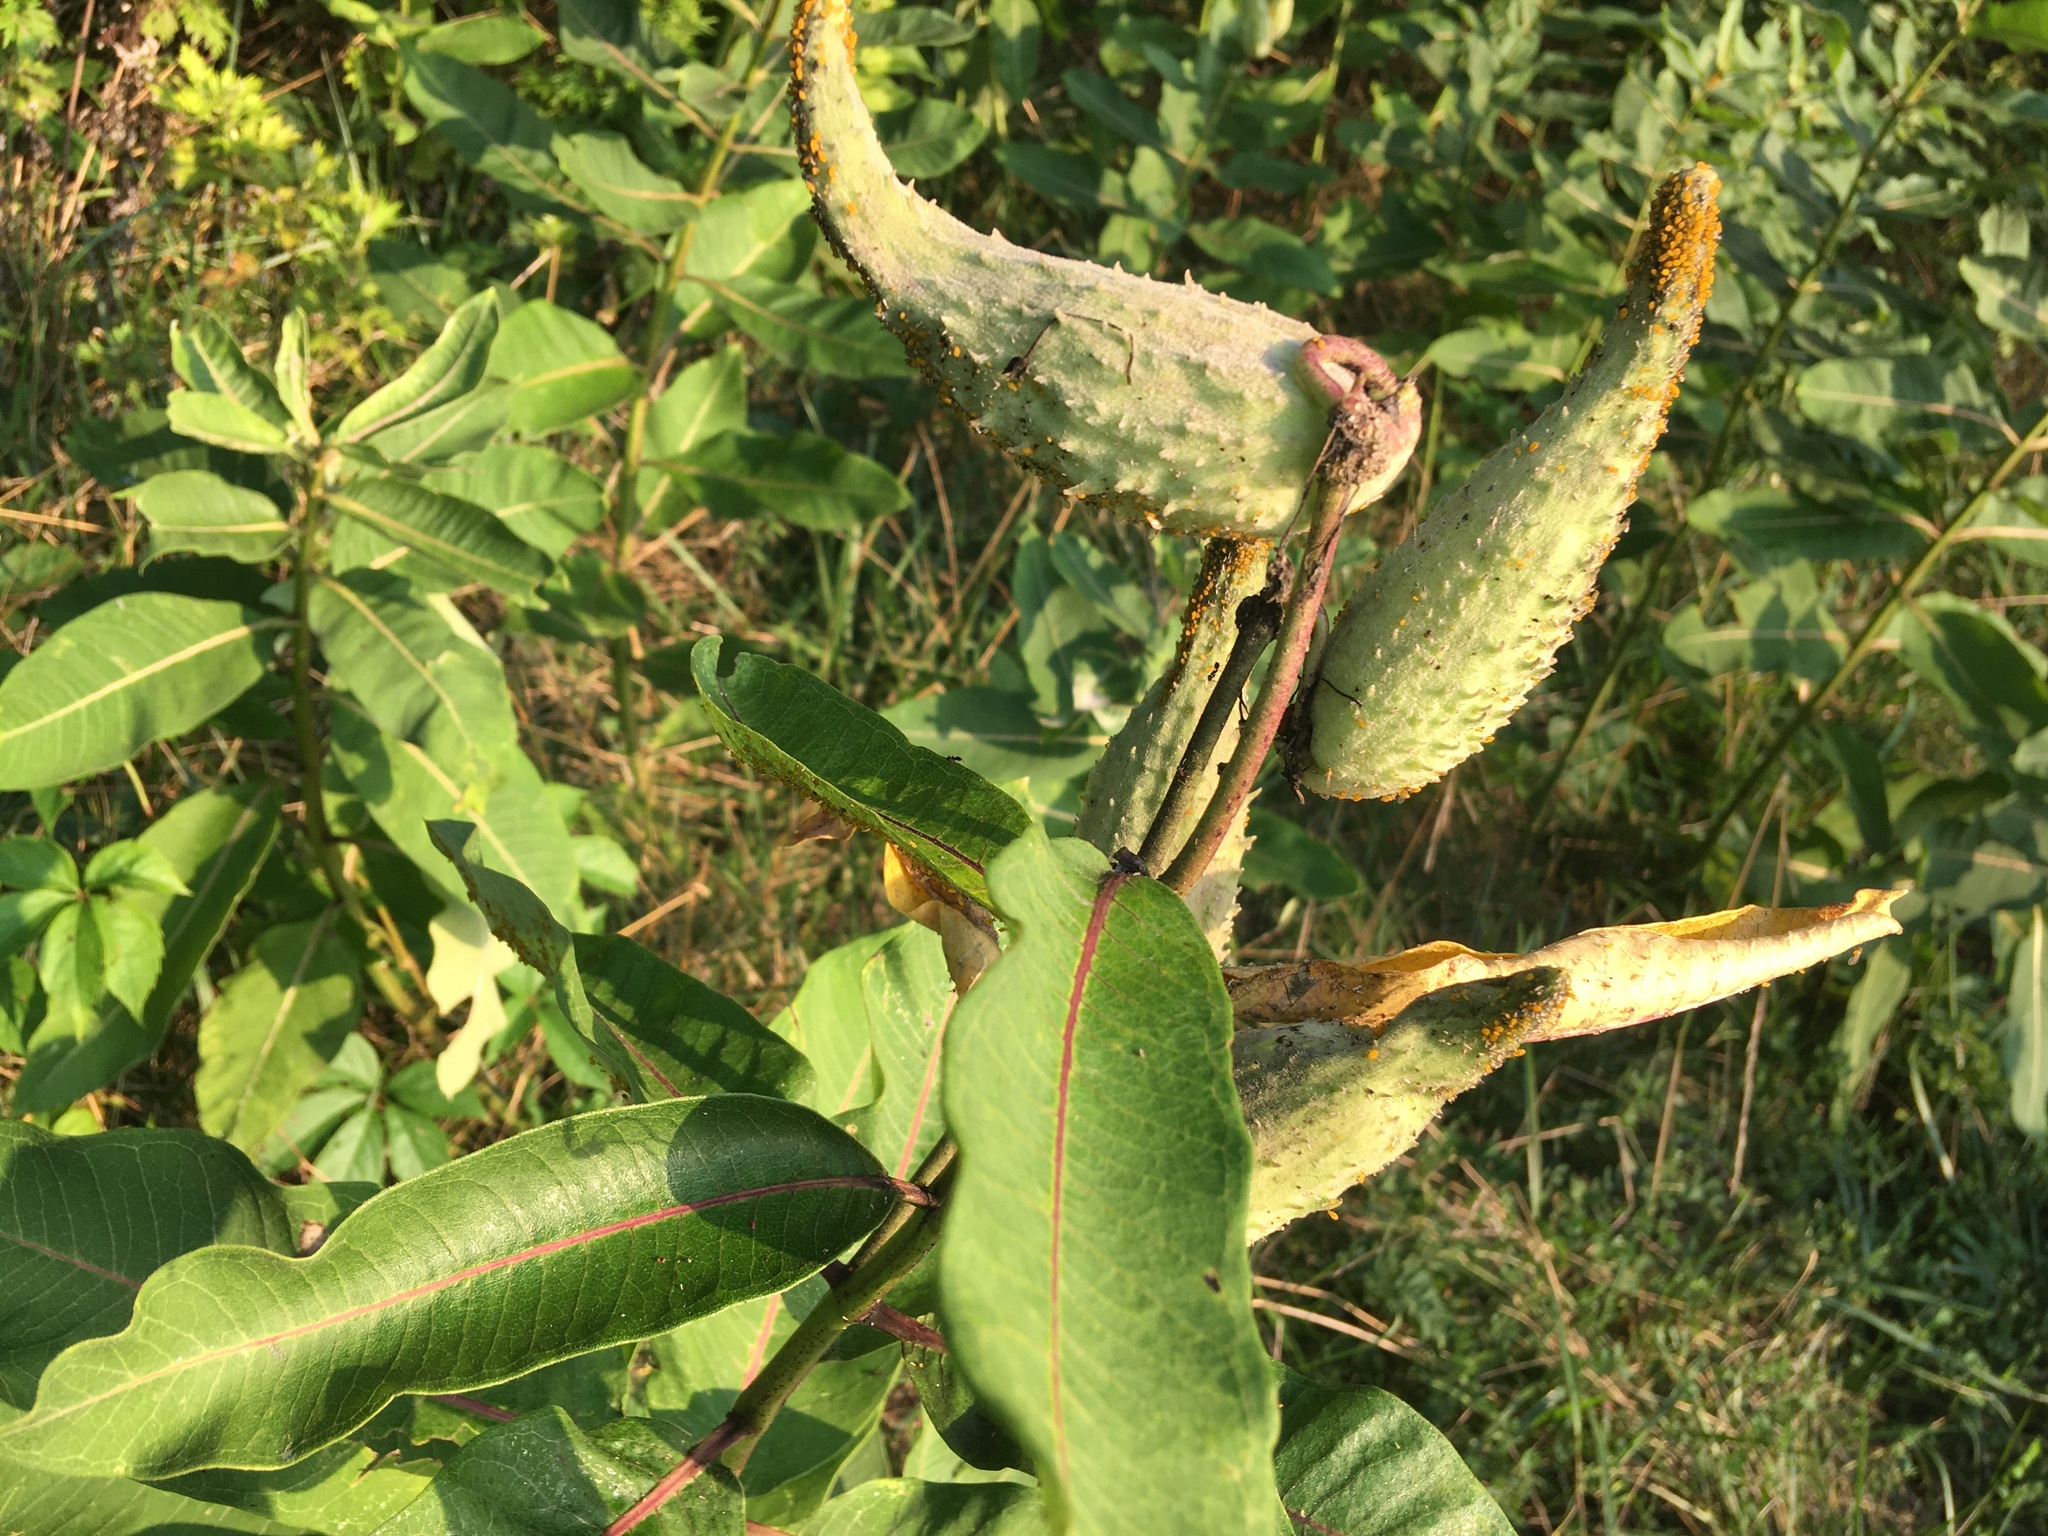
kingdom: Plantae
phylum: Tracheophyta
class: Magnoliopsida
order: Gentianales
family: Apocynaceae
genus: Asclepias
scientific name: Asclepias syriaca
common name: Common milkweed
